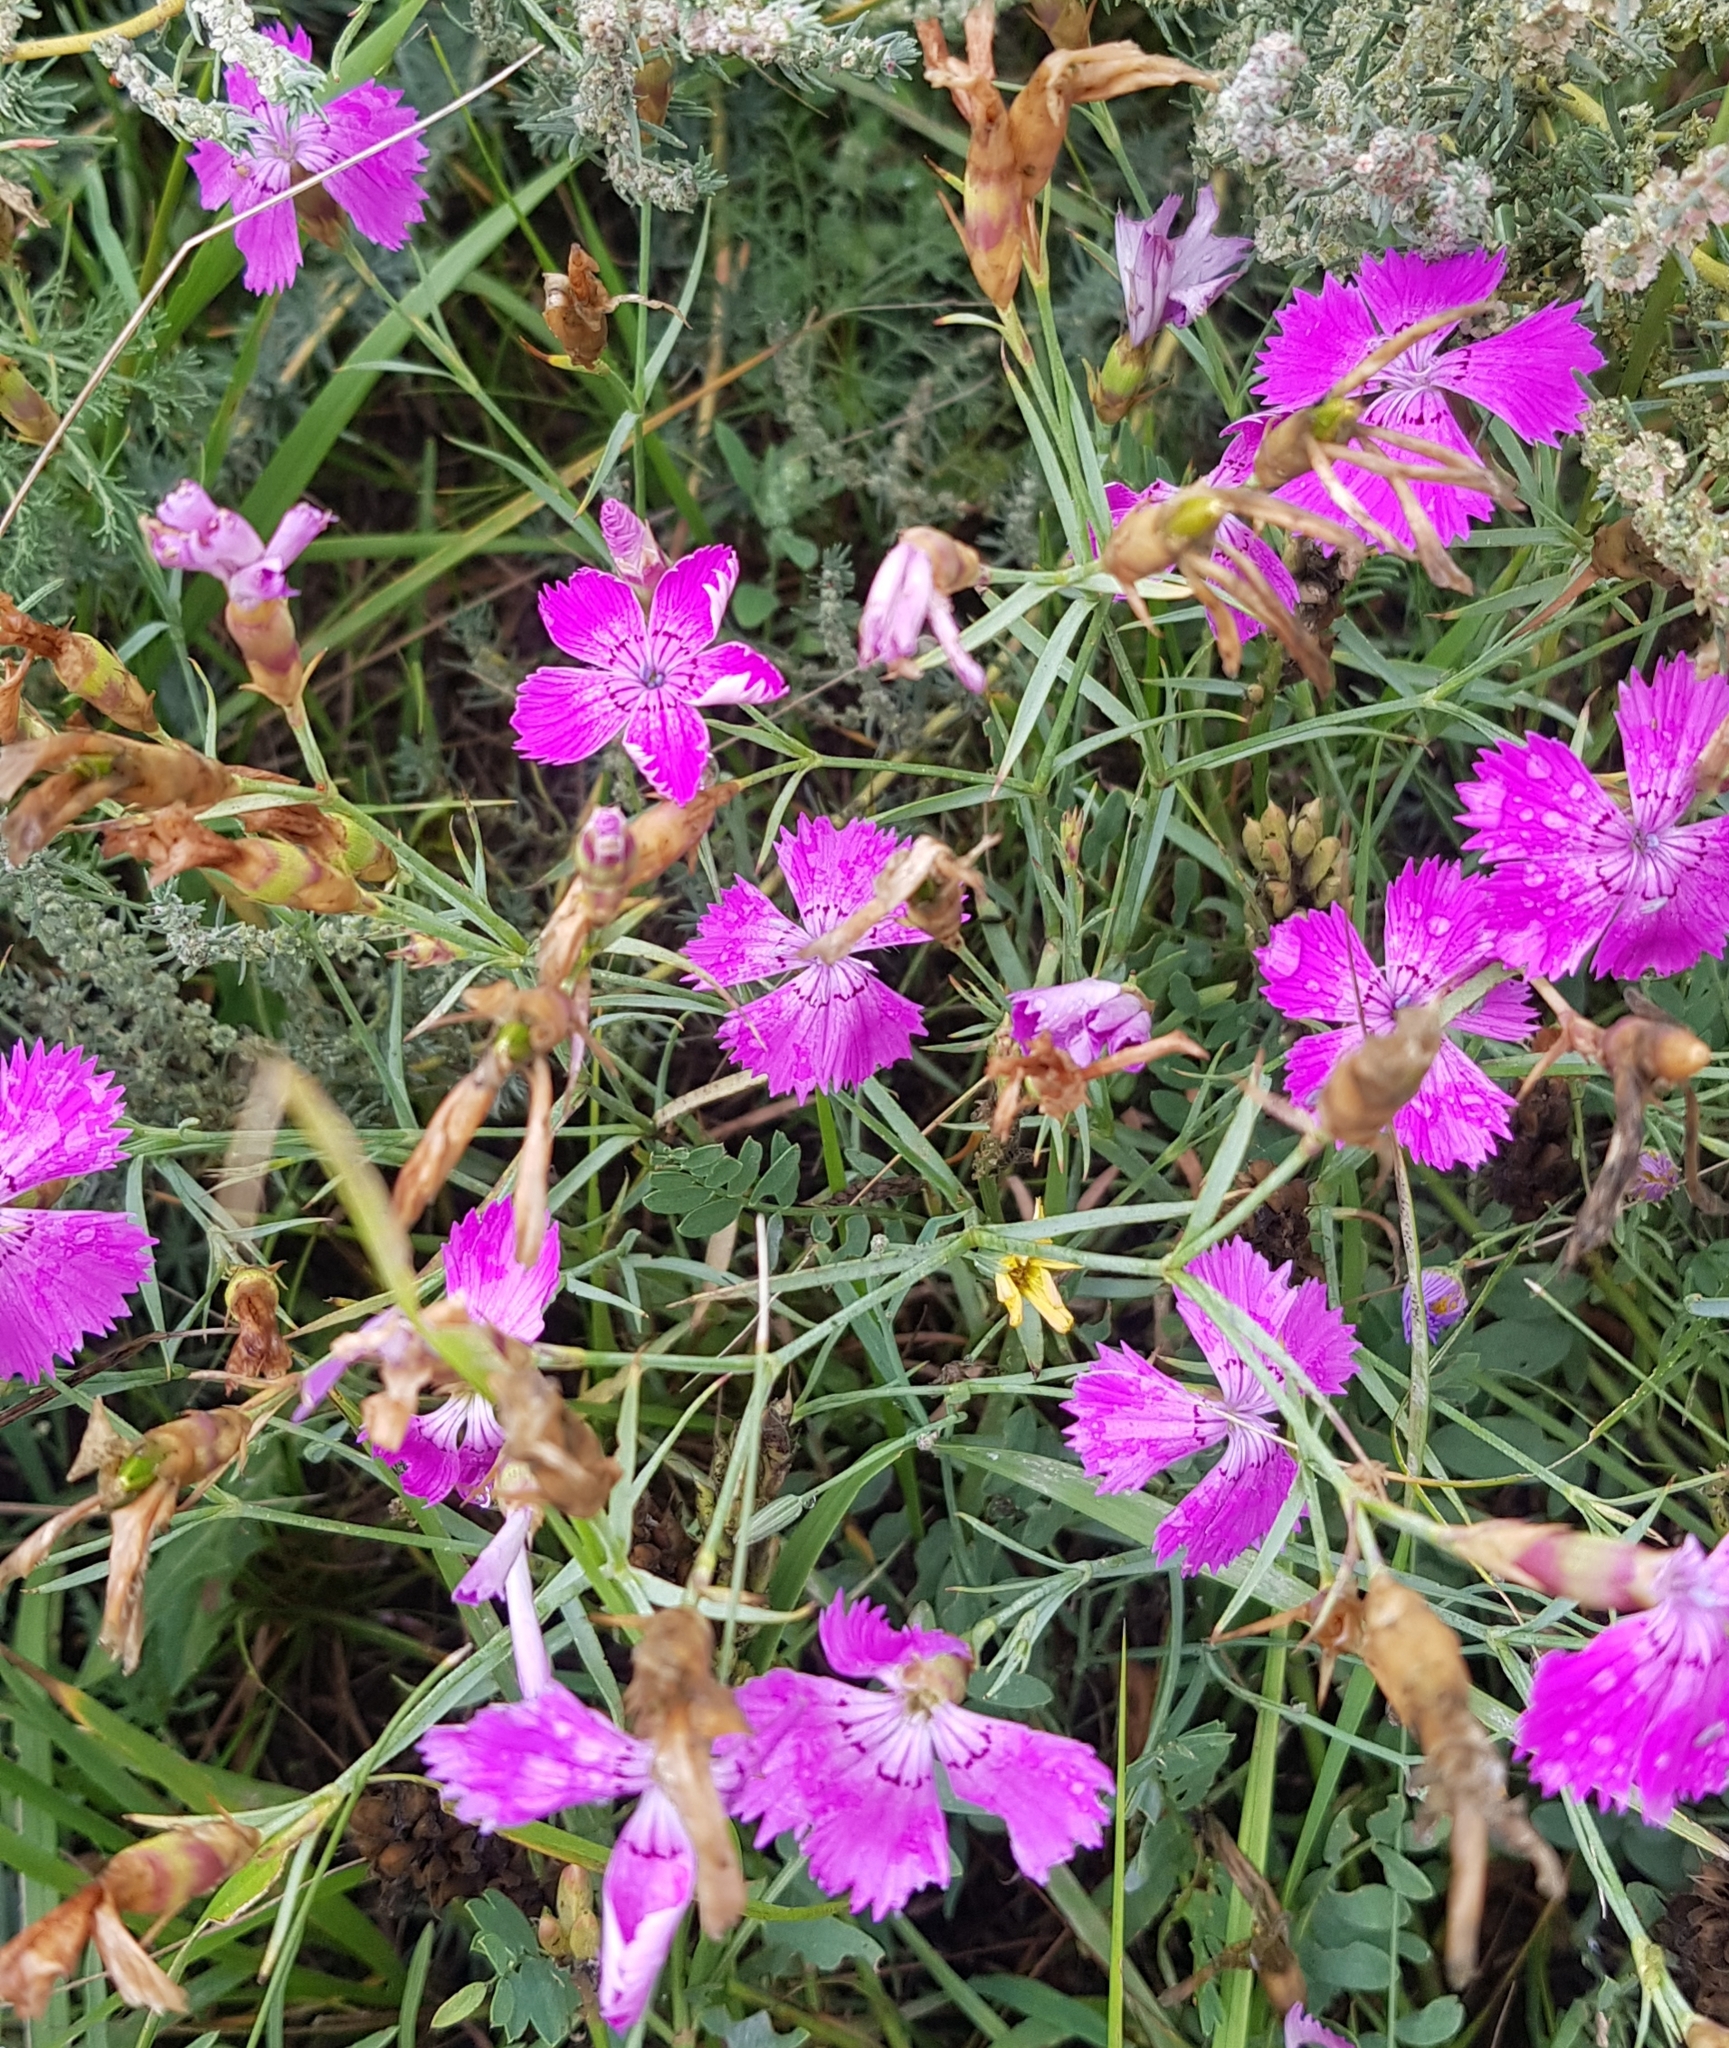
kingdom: Plantae
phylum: Tracheophyta
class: Magnoliopsida
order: Caryophyllales
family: Caryophyllaceae
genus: Dianthus
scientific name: Dianthus chinensis
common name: Rainbow pink
